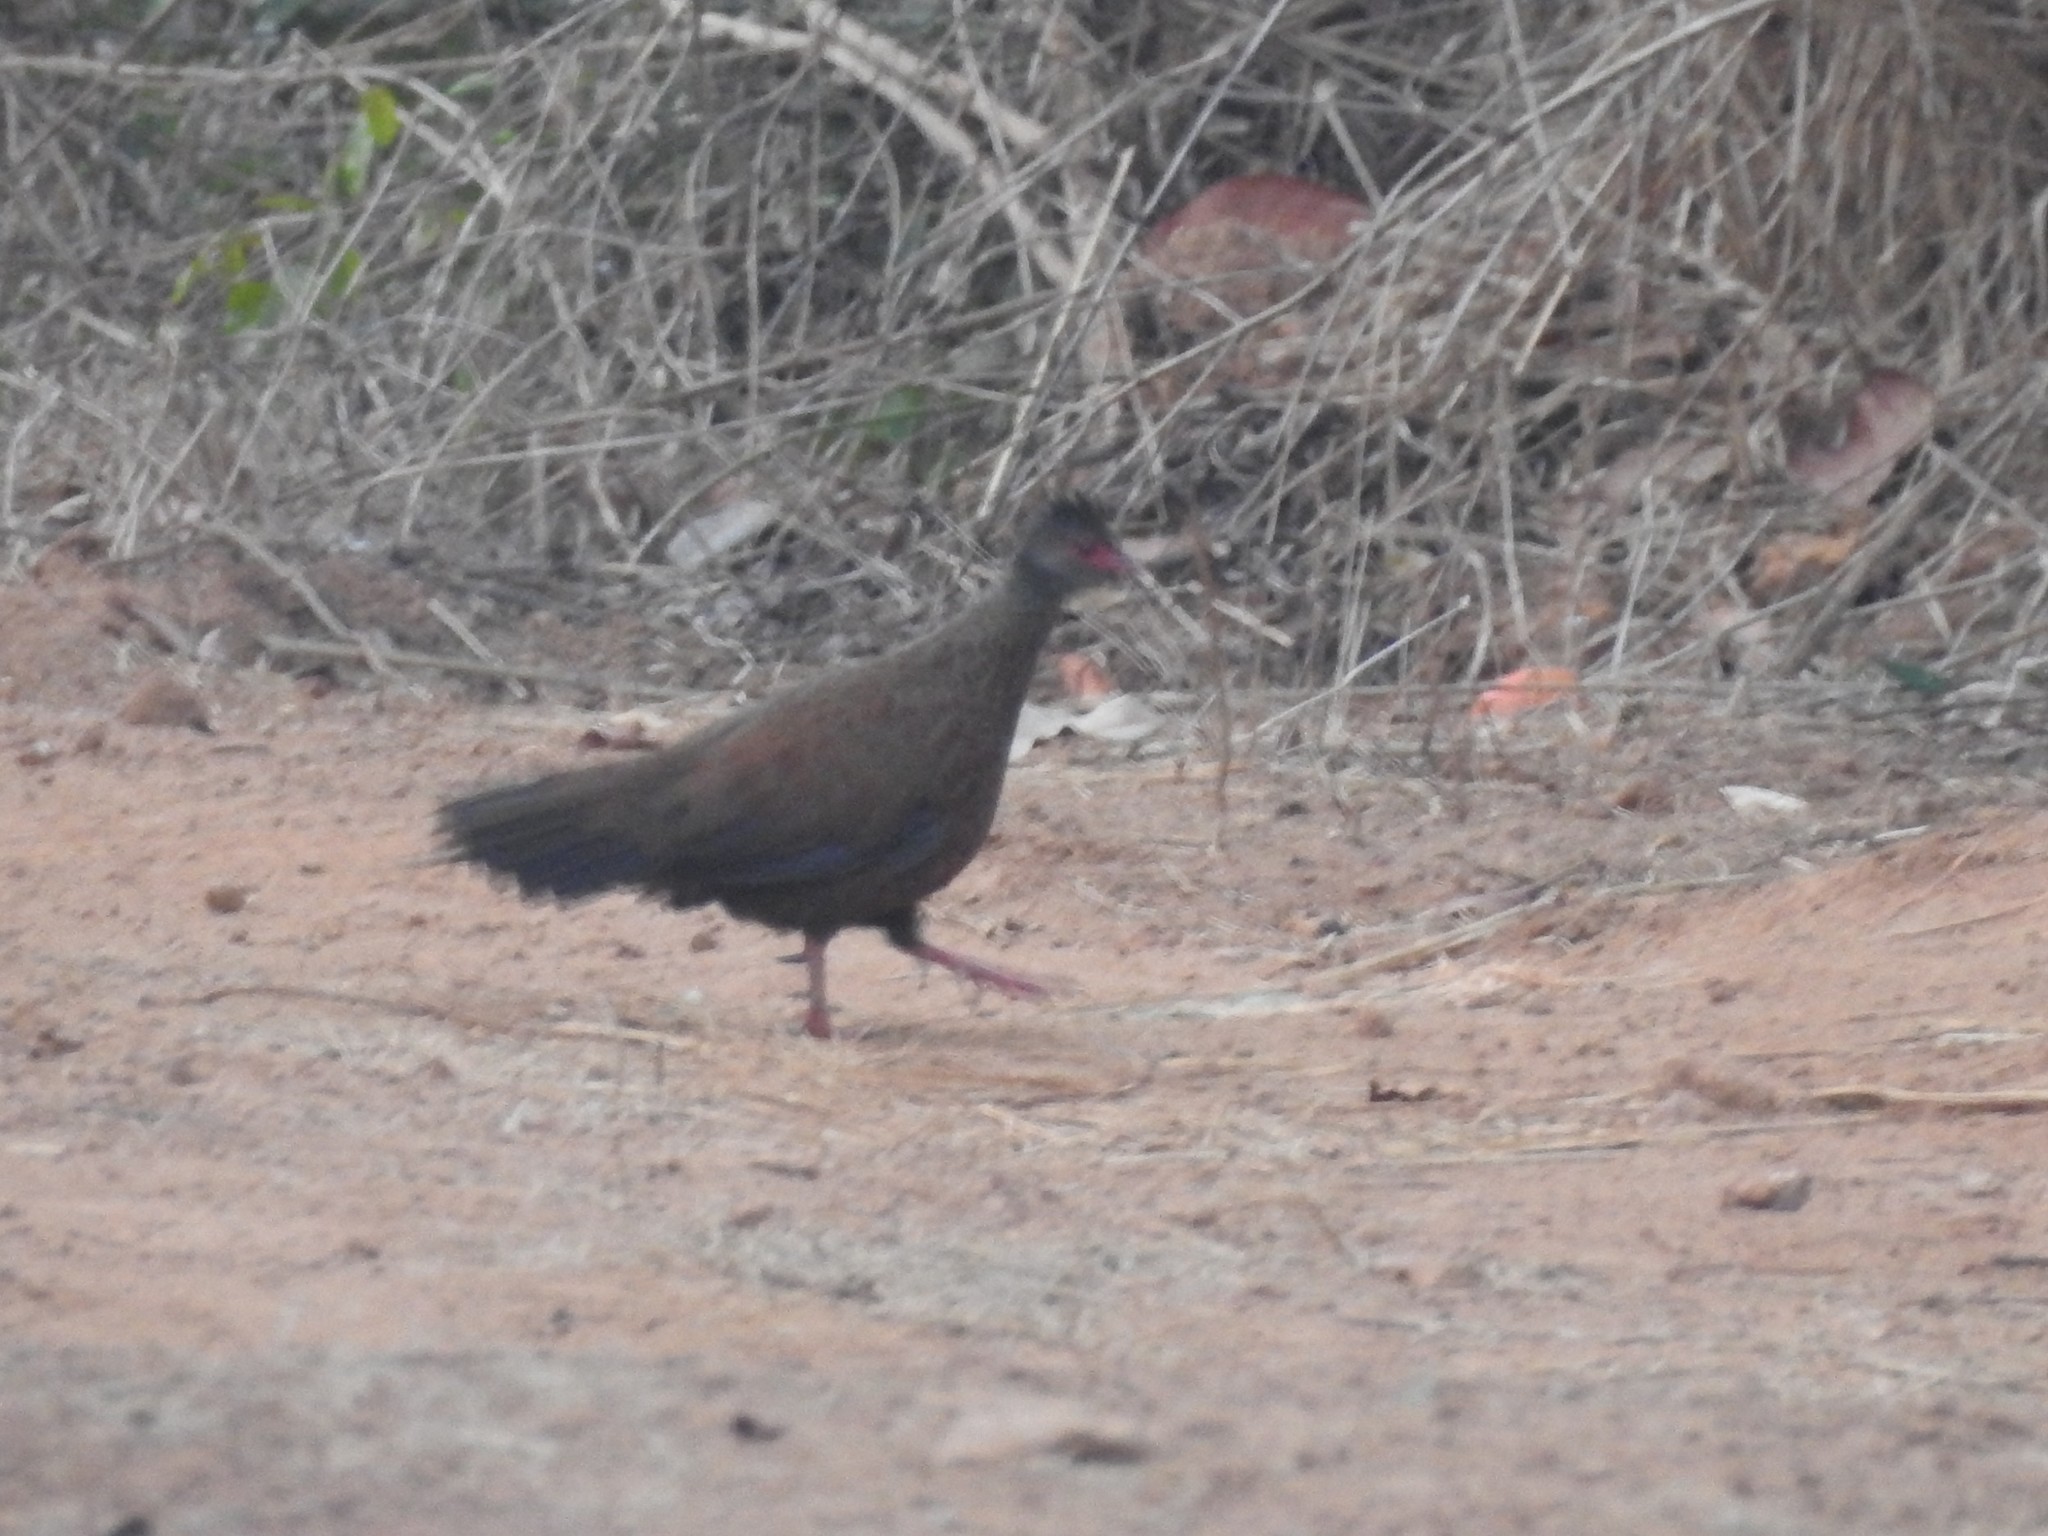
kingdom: Animalia
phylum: Chordata
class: Aves
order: Galliformes
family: Phasianidae
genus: Galloperdix
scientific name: Galloperdix spadicea
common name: Red spurfowl
